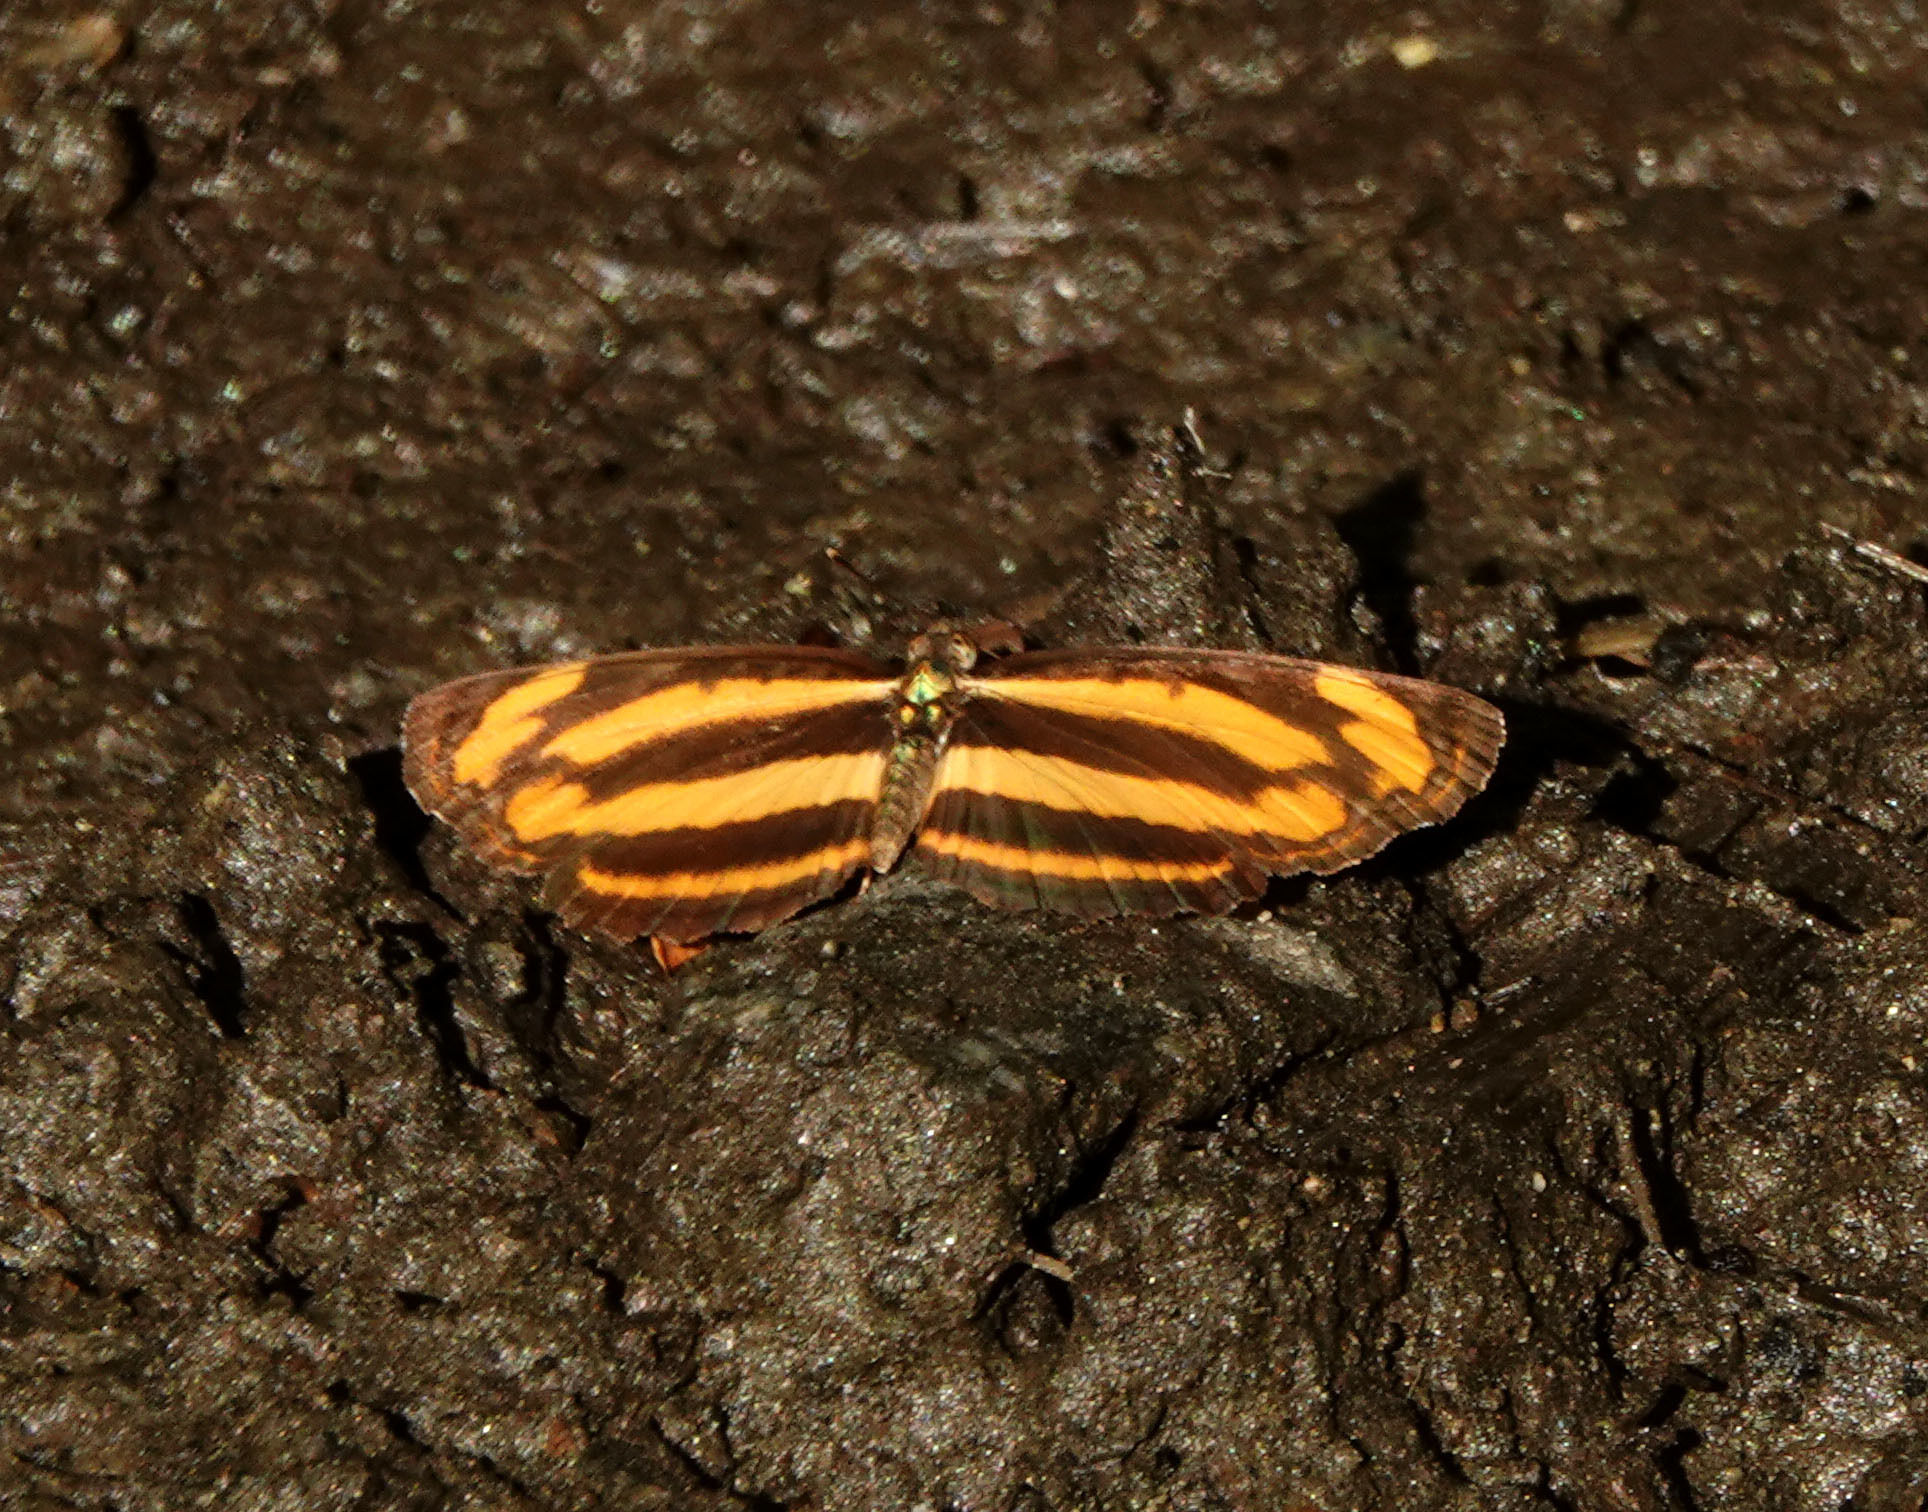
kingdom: Animalia
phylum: Arthropoda
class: Insecta
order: Lepidoptera
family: Nymphalidae
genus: Pantoporia
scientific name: Pantoporia hordonia
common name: Common lascar
